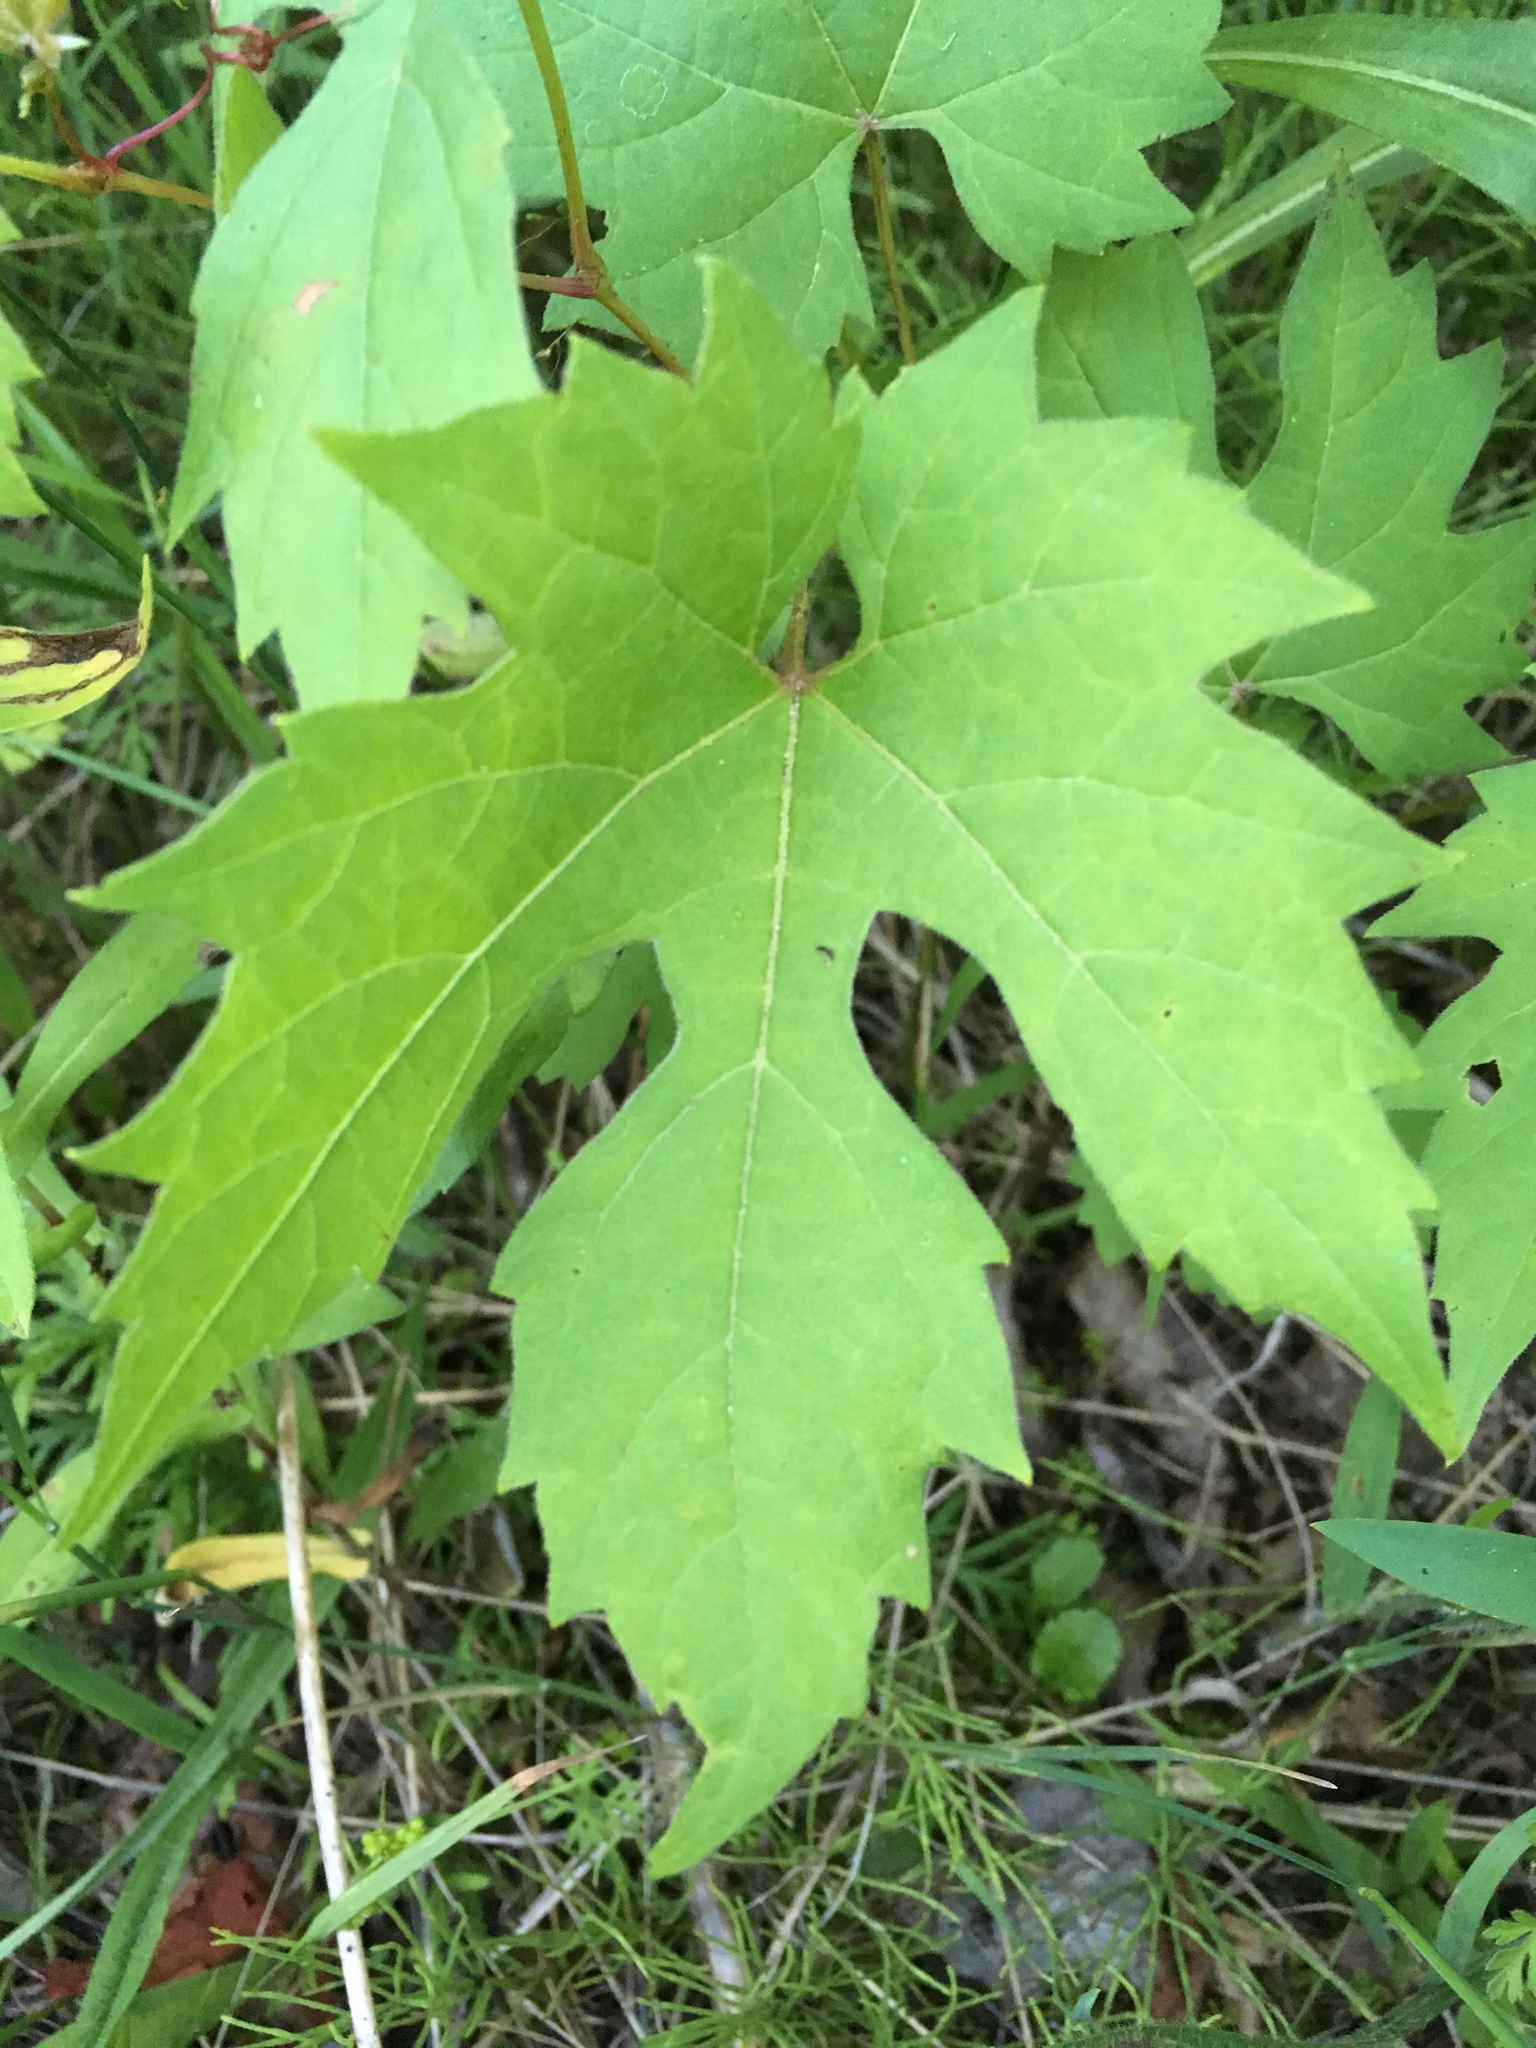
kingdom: Plantae
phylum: Tracheophyta
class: Magnoliopsida
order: Vitales
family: Vitaceae
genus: Vitis
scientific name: Vitis riparia
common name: Frost grape
